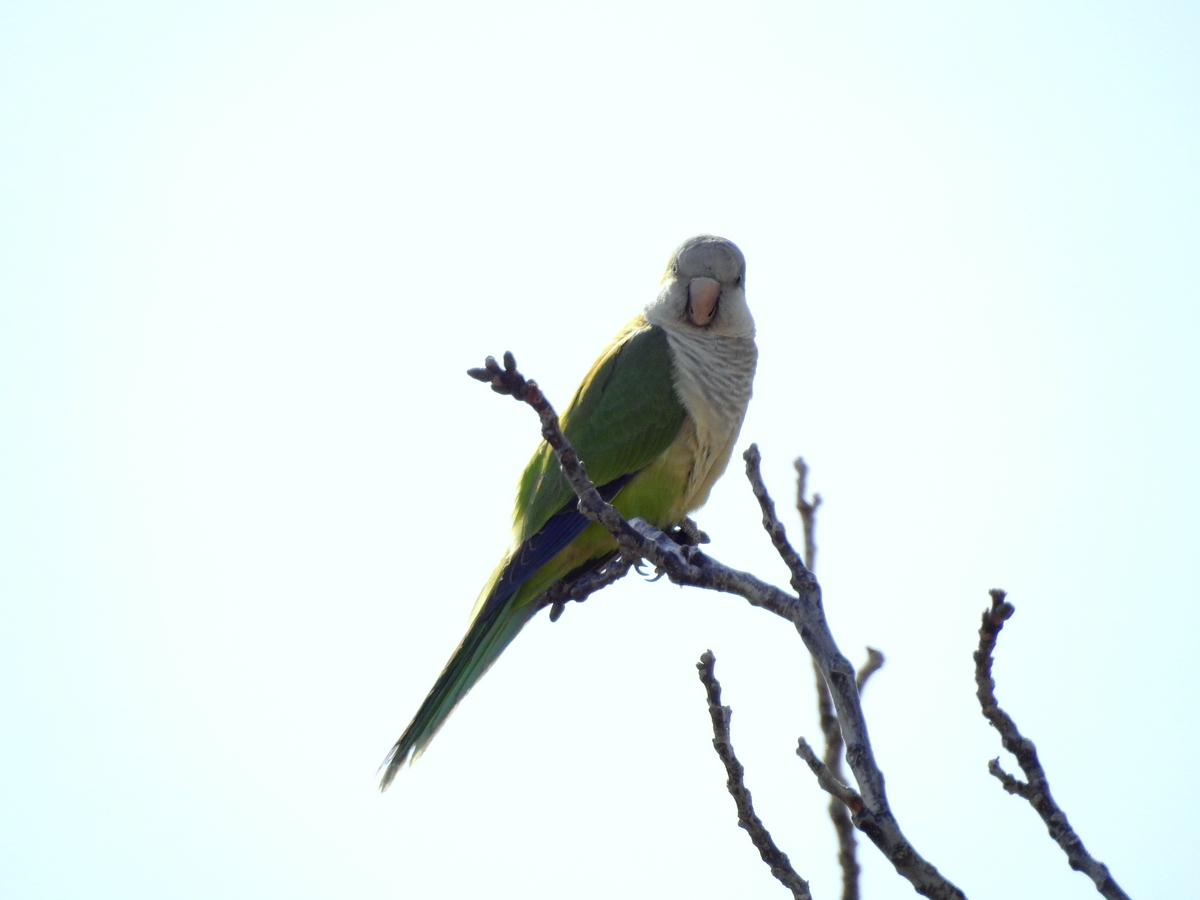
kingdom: Animalia
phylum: Chordata
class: Aves
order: Psittaciformes
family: Psittacidae
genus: Myiopsitta
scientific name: Myiopsitta monachus
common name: Monk parakeet
